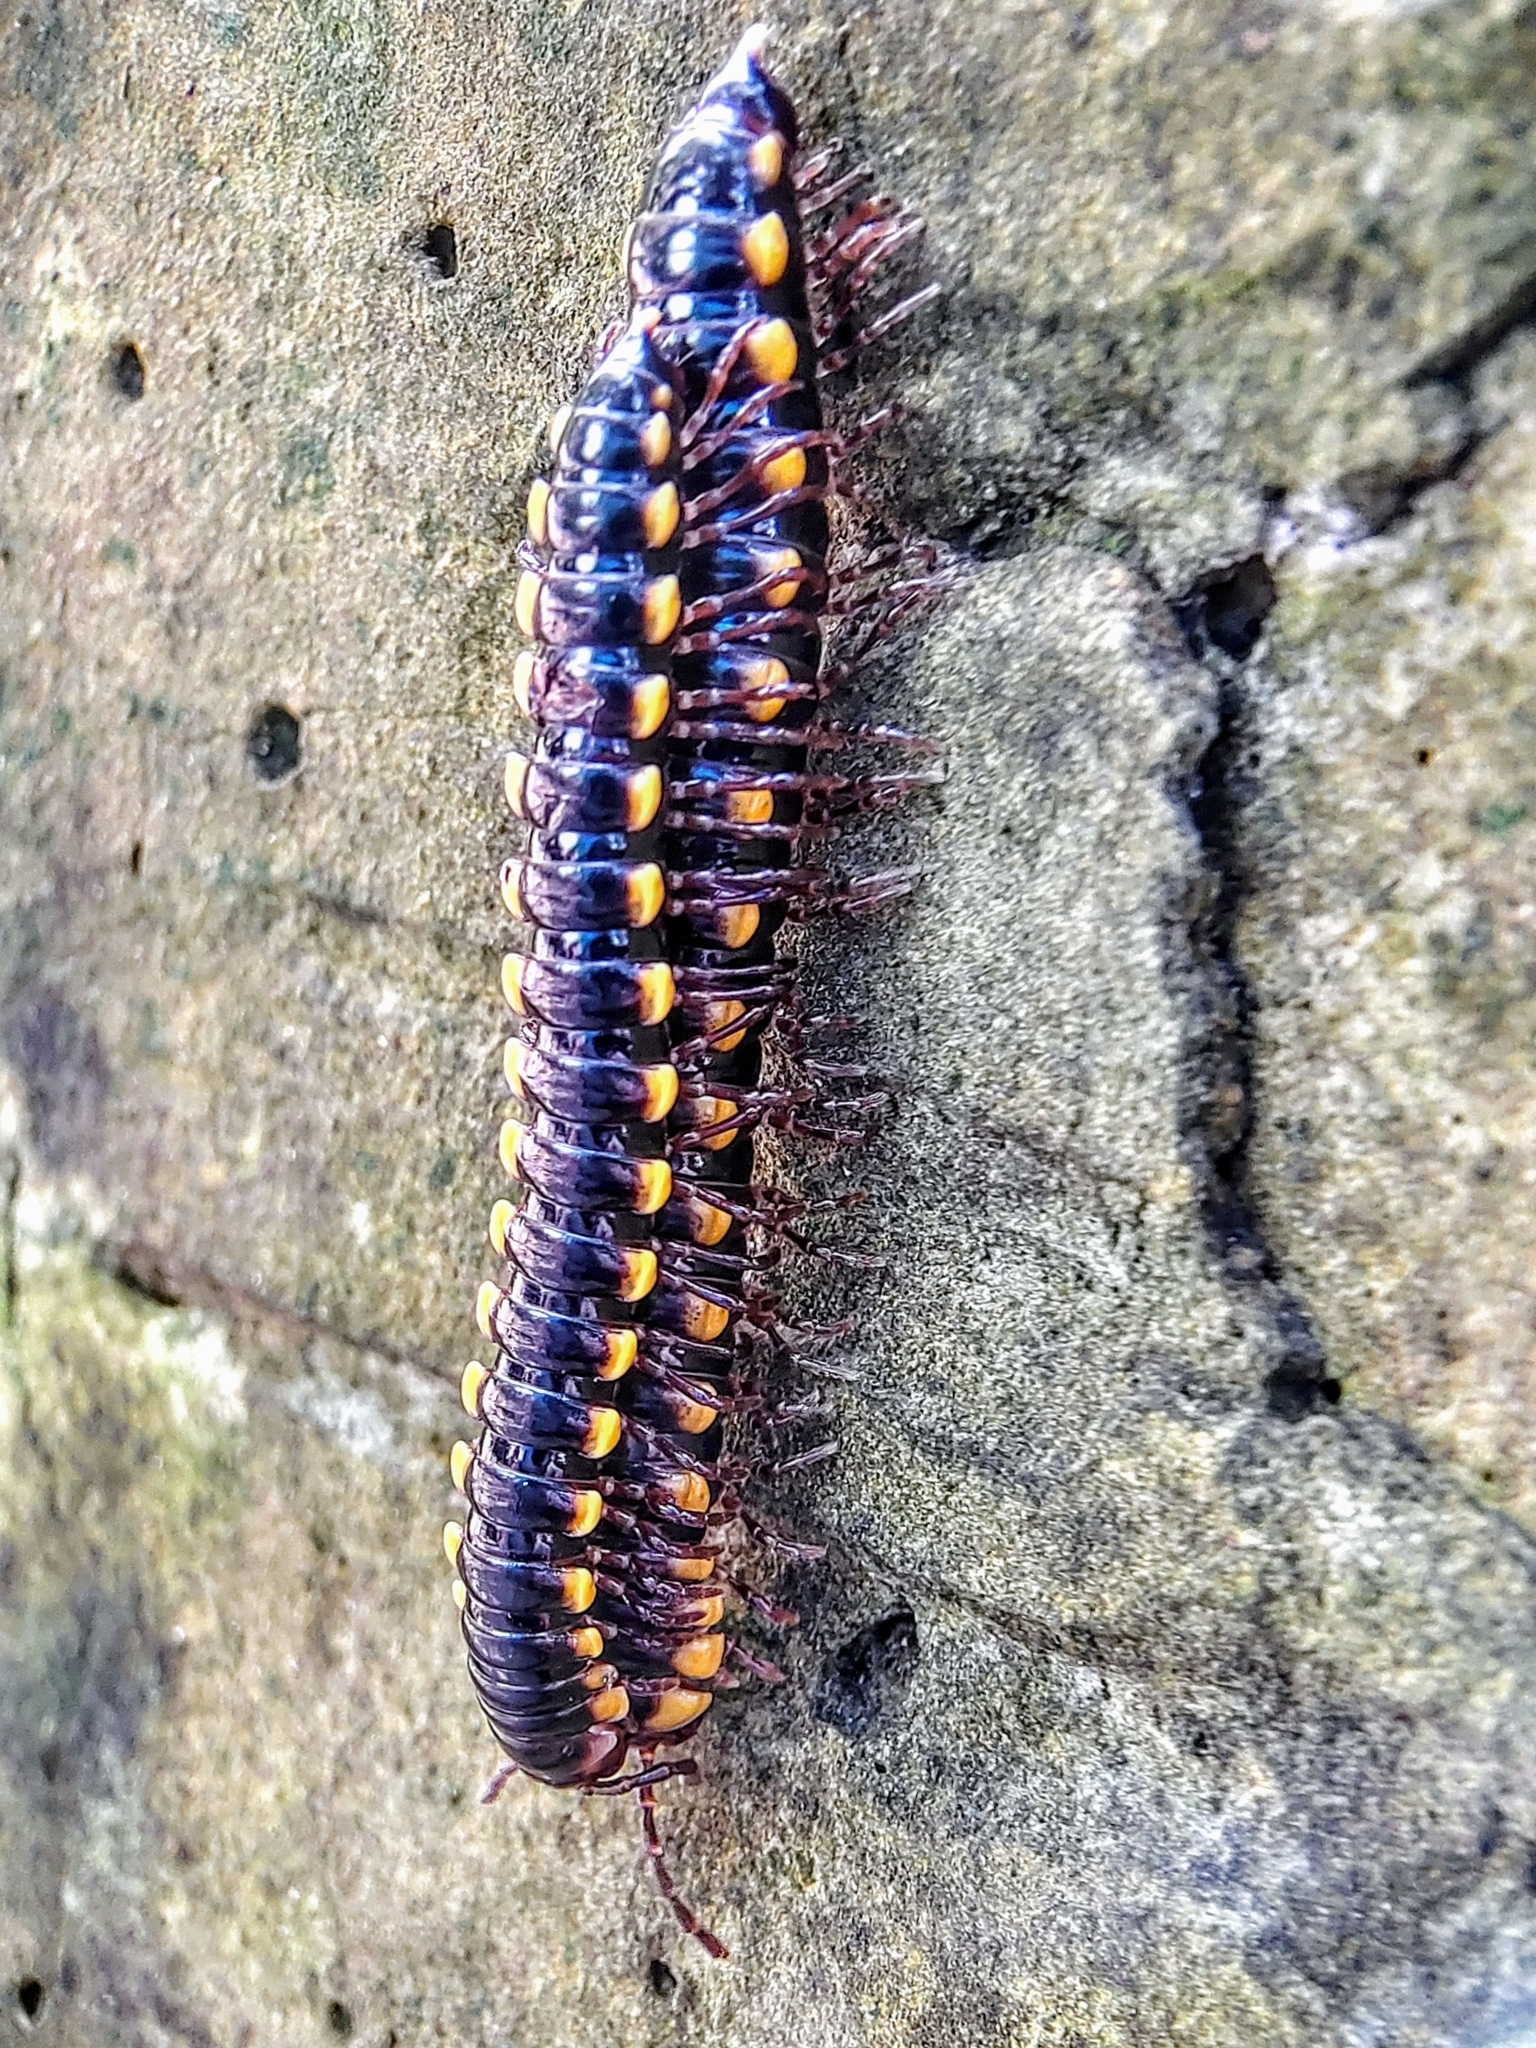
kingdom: Animalia
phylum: Arthropoda
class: Diplopoda
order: Polydesmida
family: Paradoxosomatidae
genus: Anoplodesmus
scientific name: Anoplodesmus saussurii
